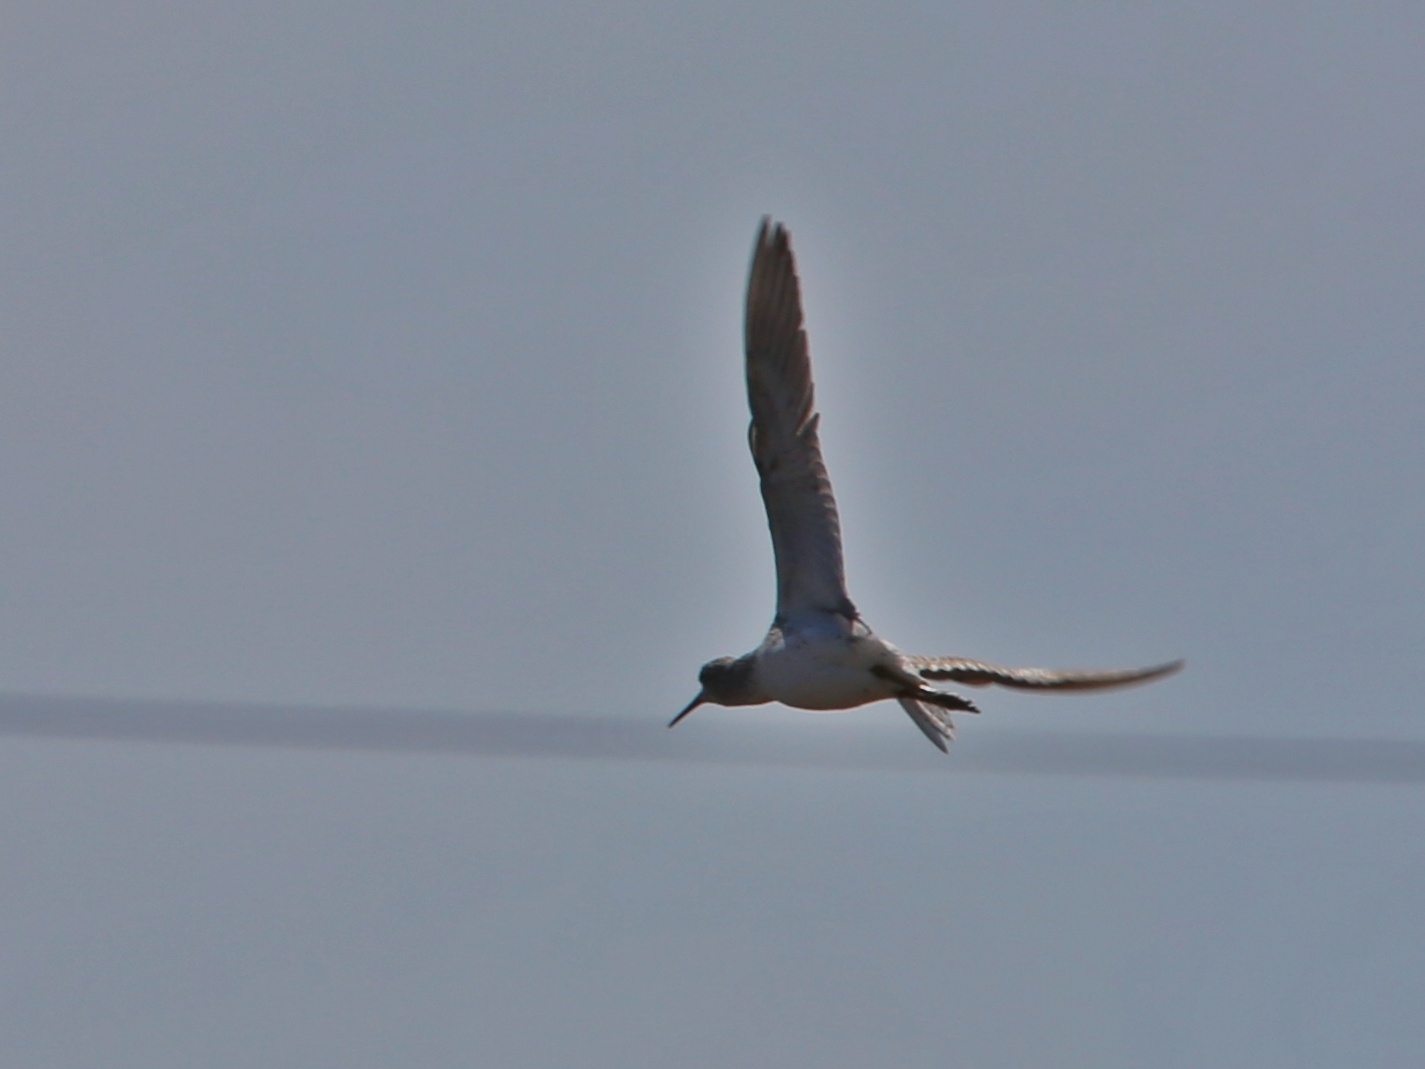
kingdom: Animalia
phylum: Chordata
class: Aves
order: Charadriiformes
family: Scolopacidae
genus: Tringa
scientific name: Tringa stagnatilis
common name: Marsh sandpiper
